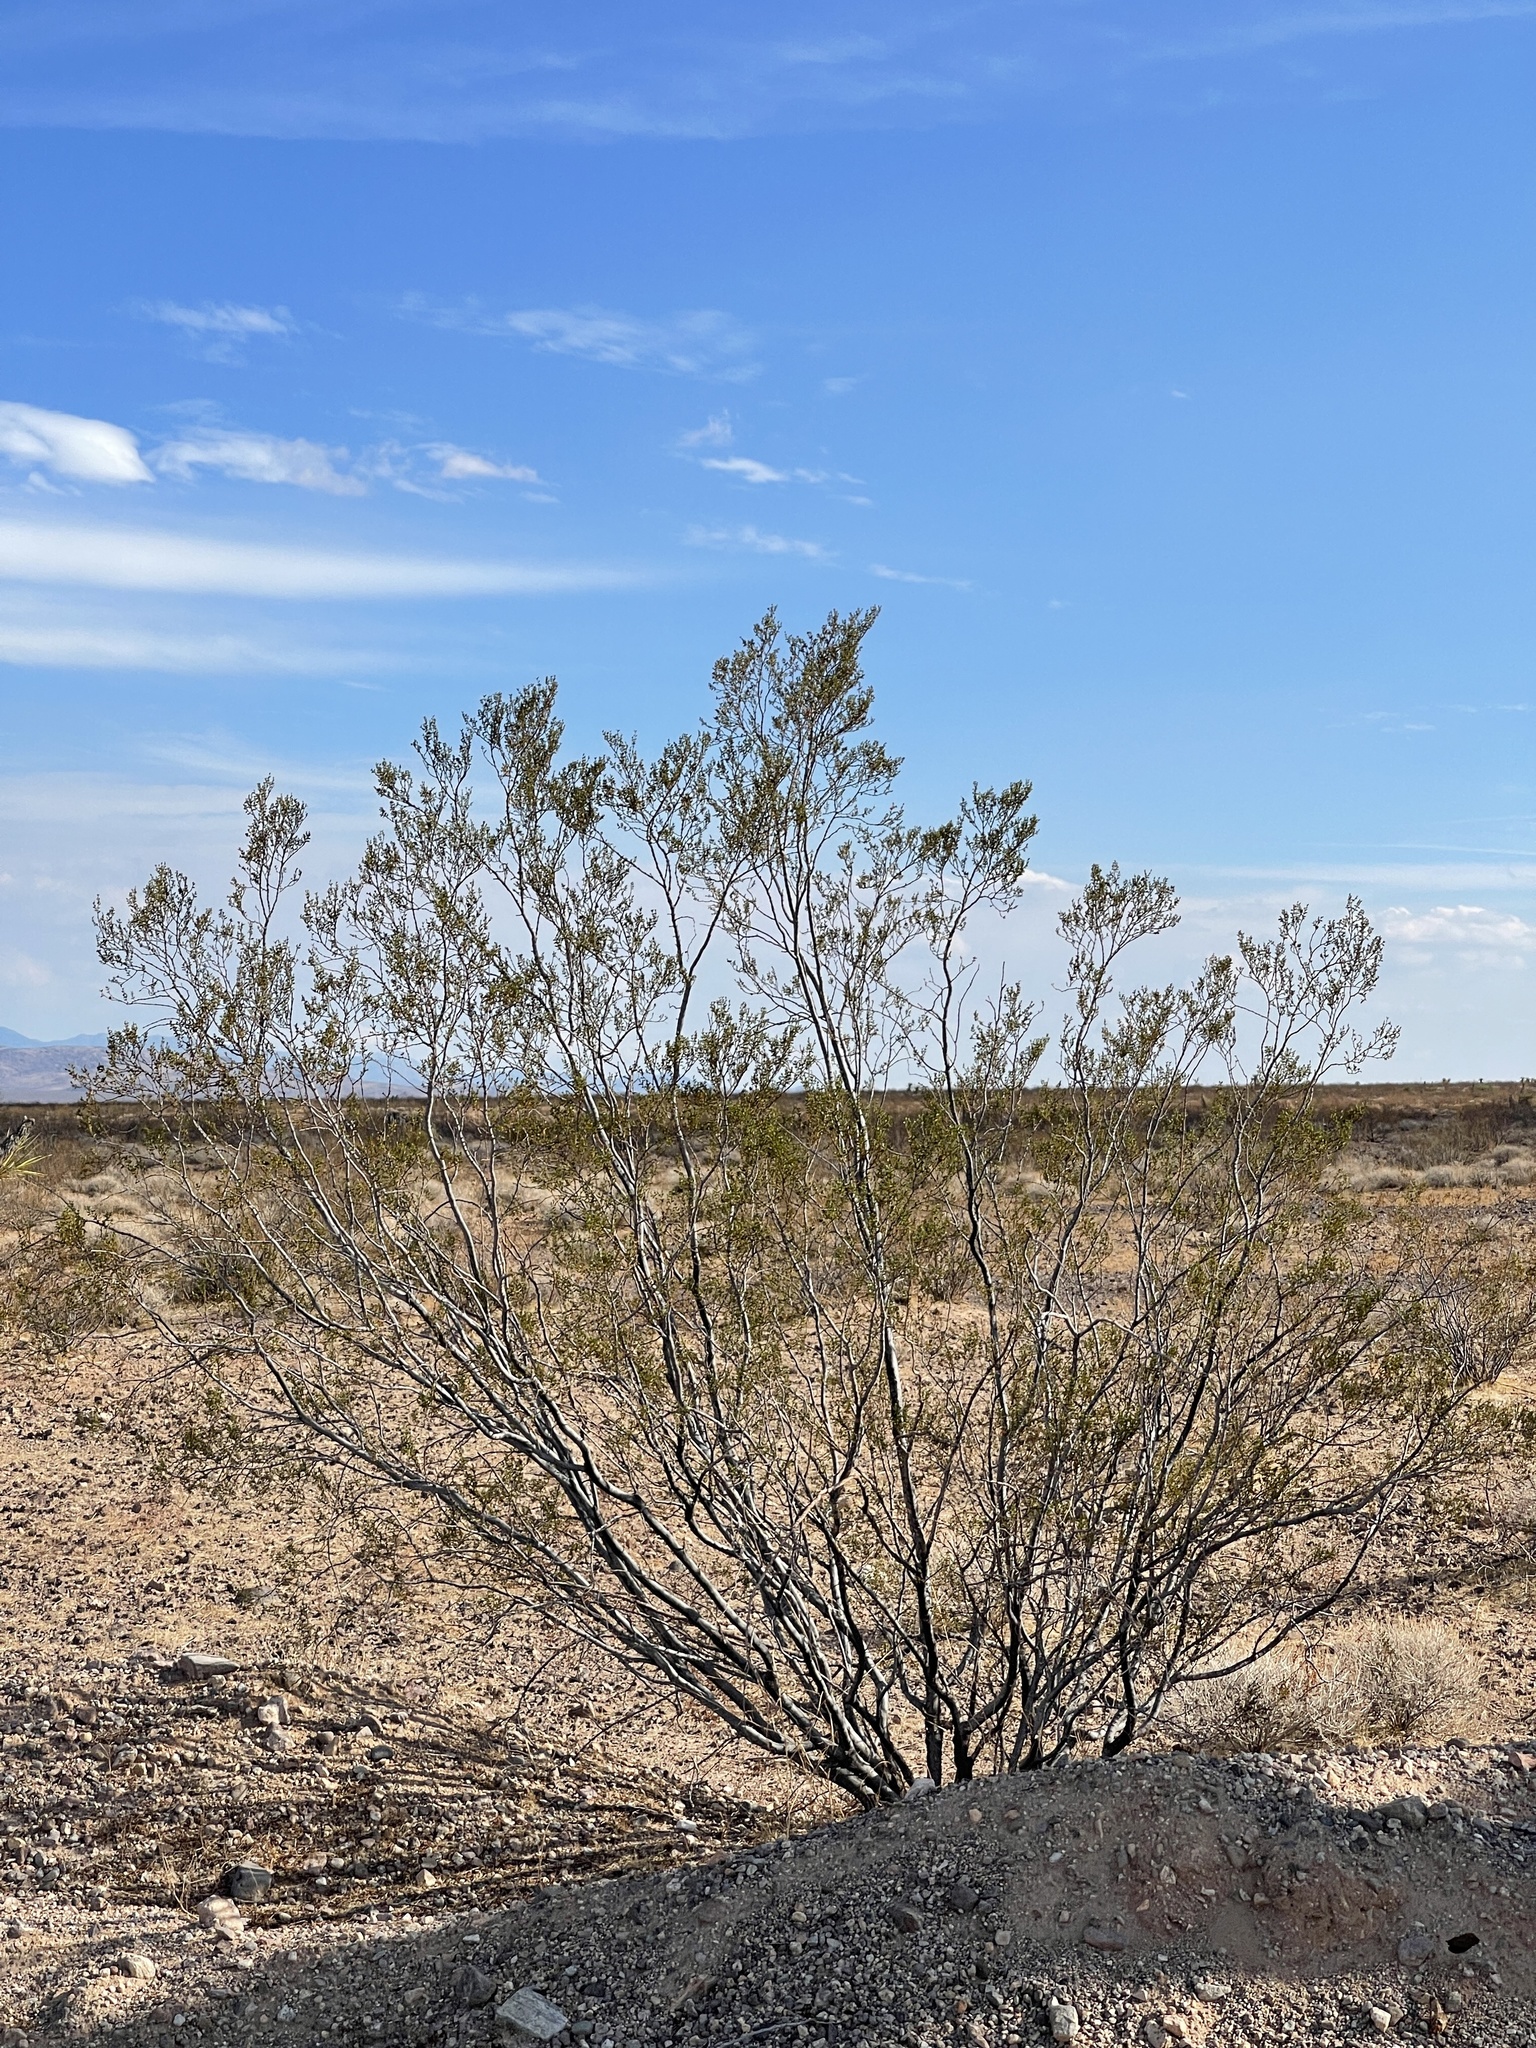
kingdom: Plantae
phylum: Tracheophyta
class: Magnoliopsida
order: Zygophyllales
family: Zygophyllaceae
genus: Larrea
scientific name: Larrea tridentata
